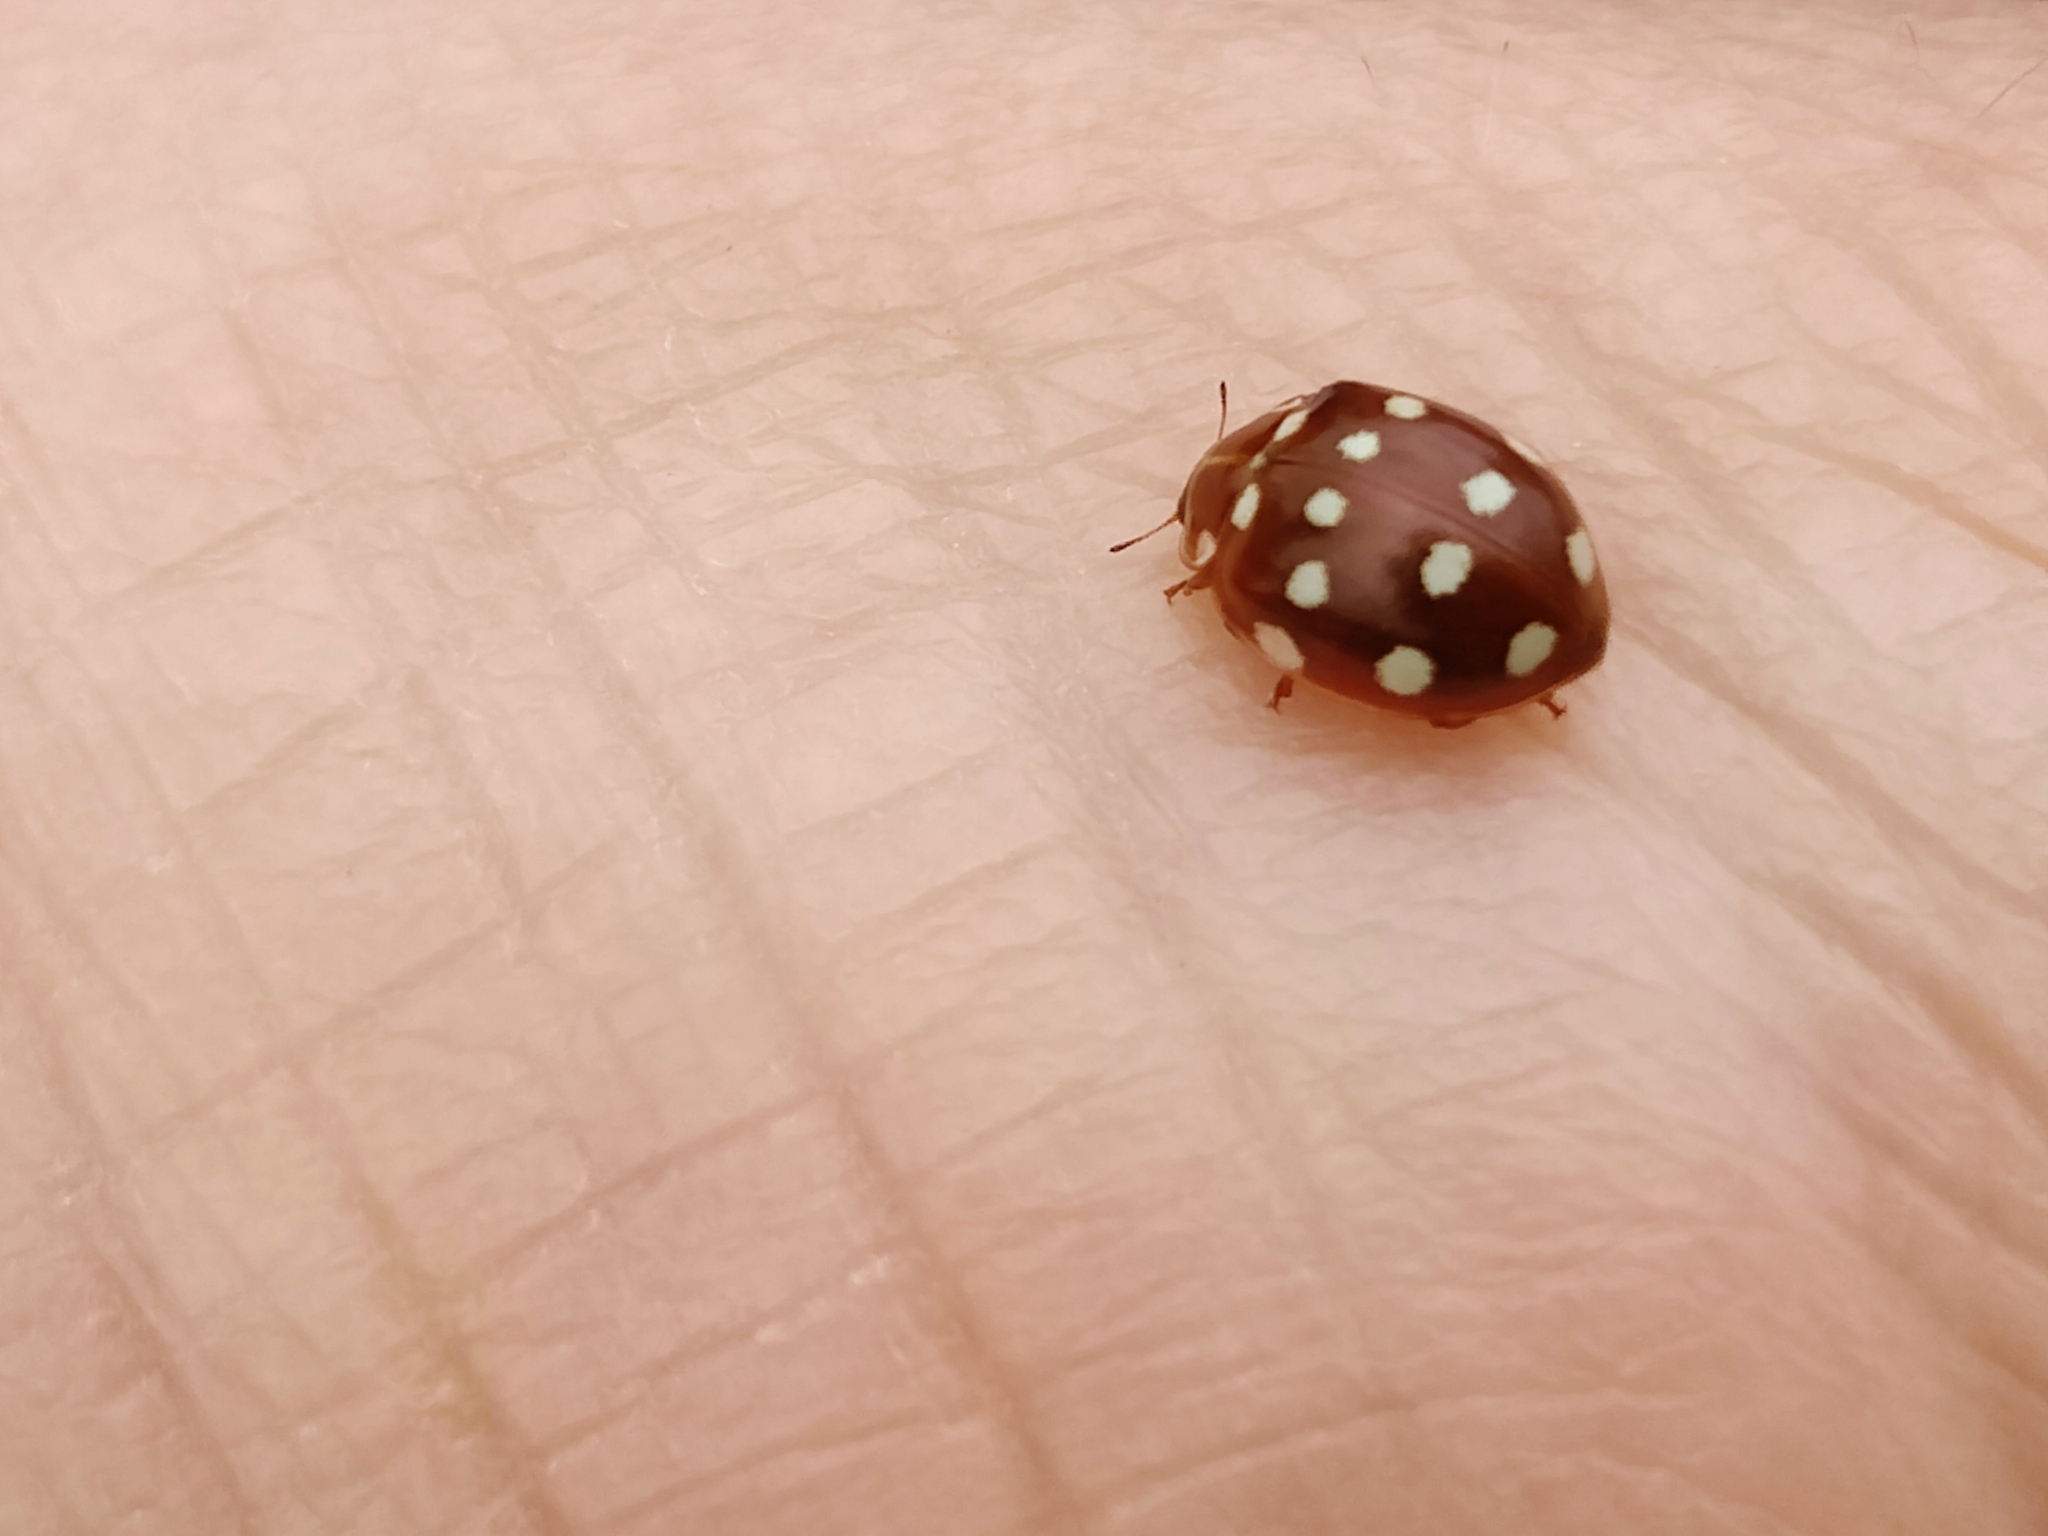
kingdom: Animalia
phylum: Arthropoda
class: Insecta
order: Coleoptera
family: Coccinellidae
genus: Calvia
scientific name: Calvia quatuordecimguttata
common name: Cream-spot ladybird
